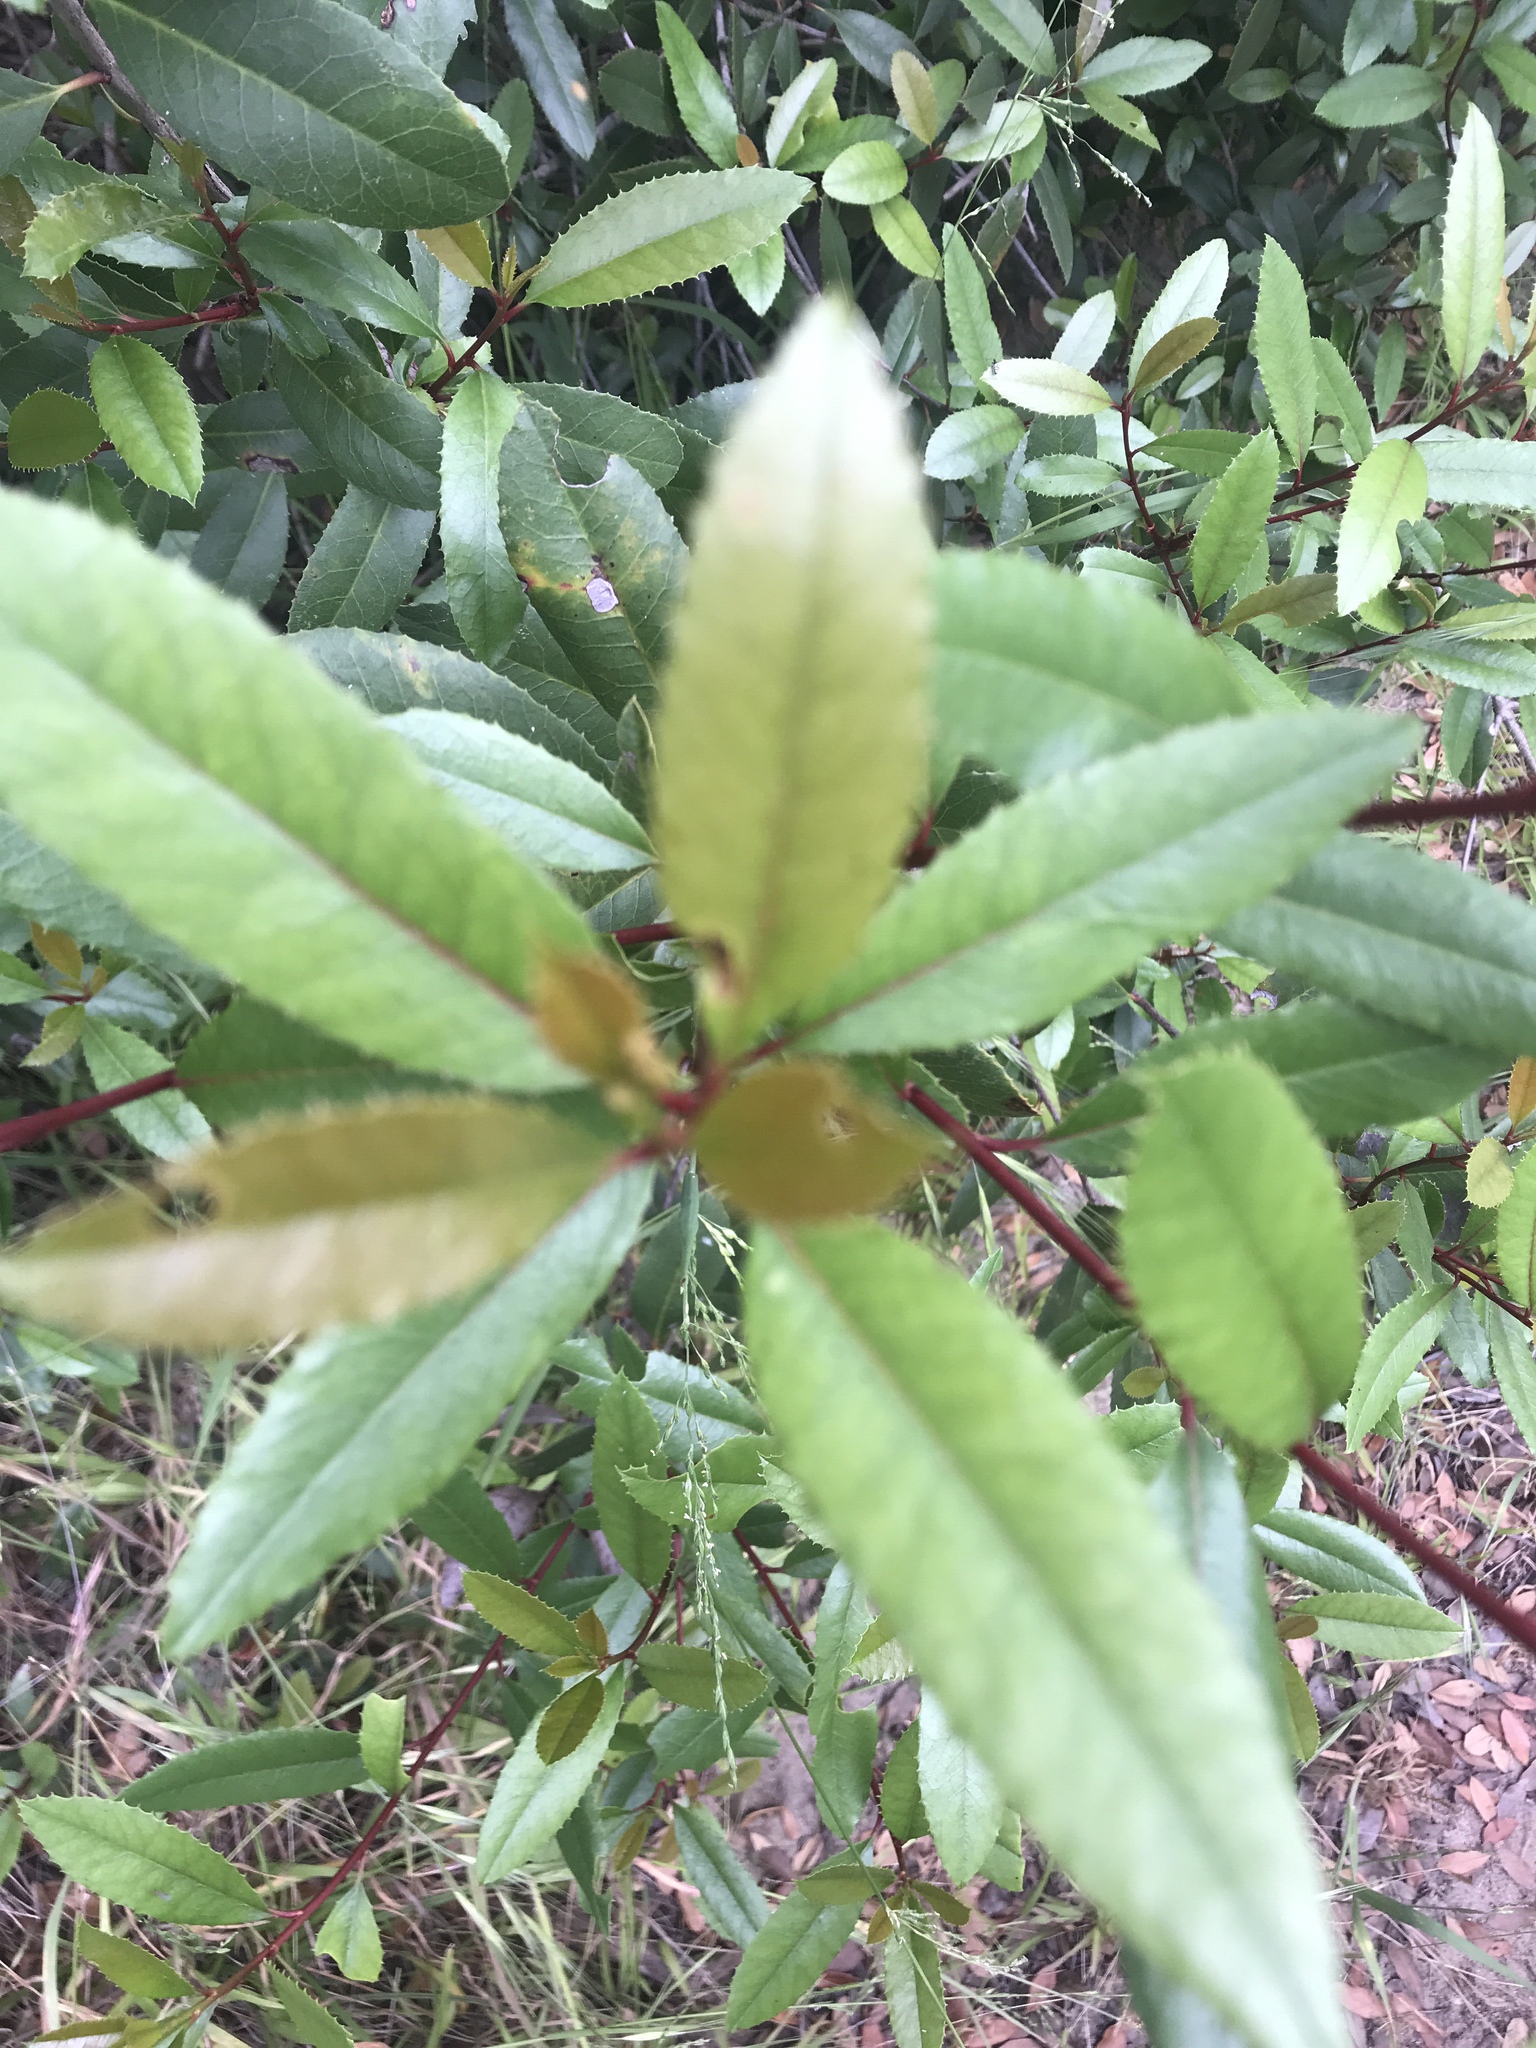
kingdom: Plantae
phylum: Tracheophyta
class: Magnoliopsida
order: Rosales
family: Rosaceae
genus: Heteromeles
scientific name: Heteromeles arbutifolia
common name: California-holly
